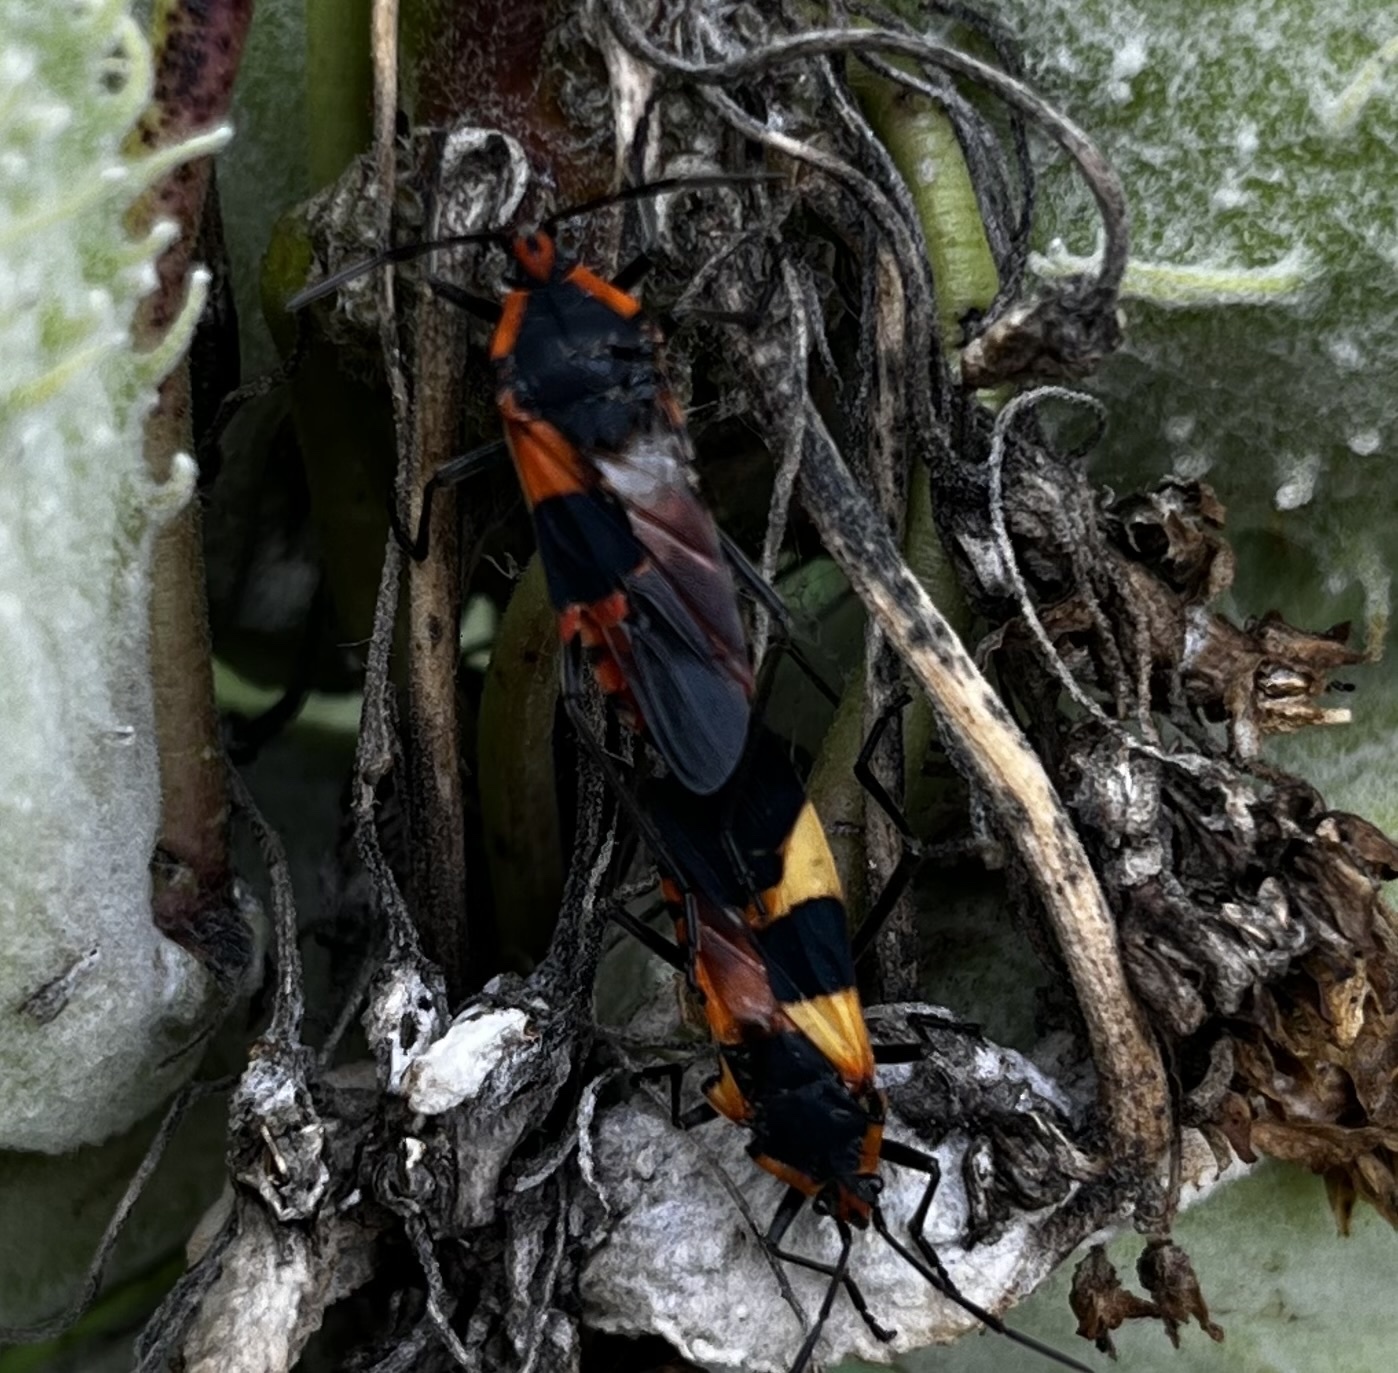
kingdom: Animalia
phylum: Arthropoda
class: Insecta
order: Hemiptera
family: Lygaeidae
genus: Oncopeltus
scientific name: Oncopeltus fasciatus
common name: Large milkweed bug
